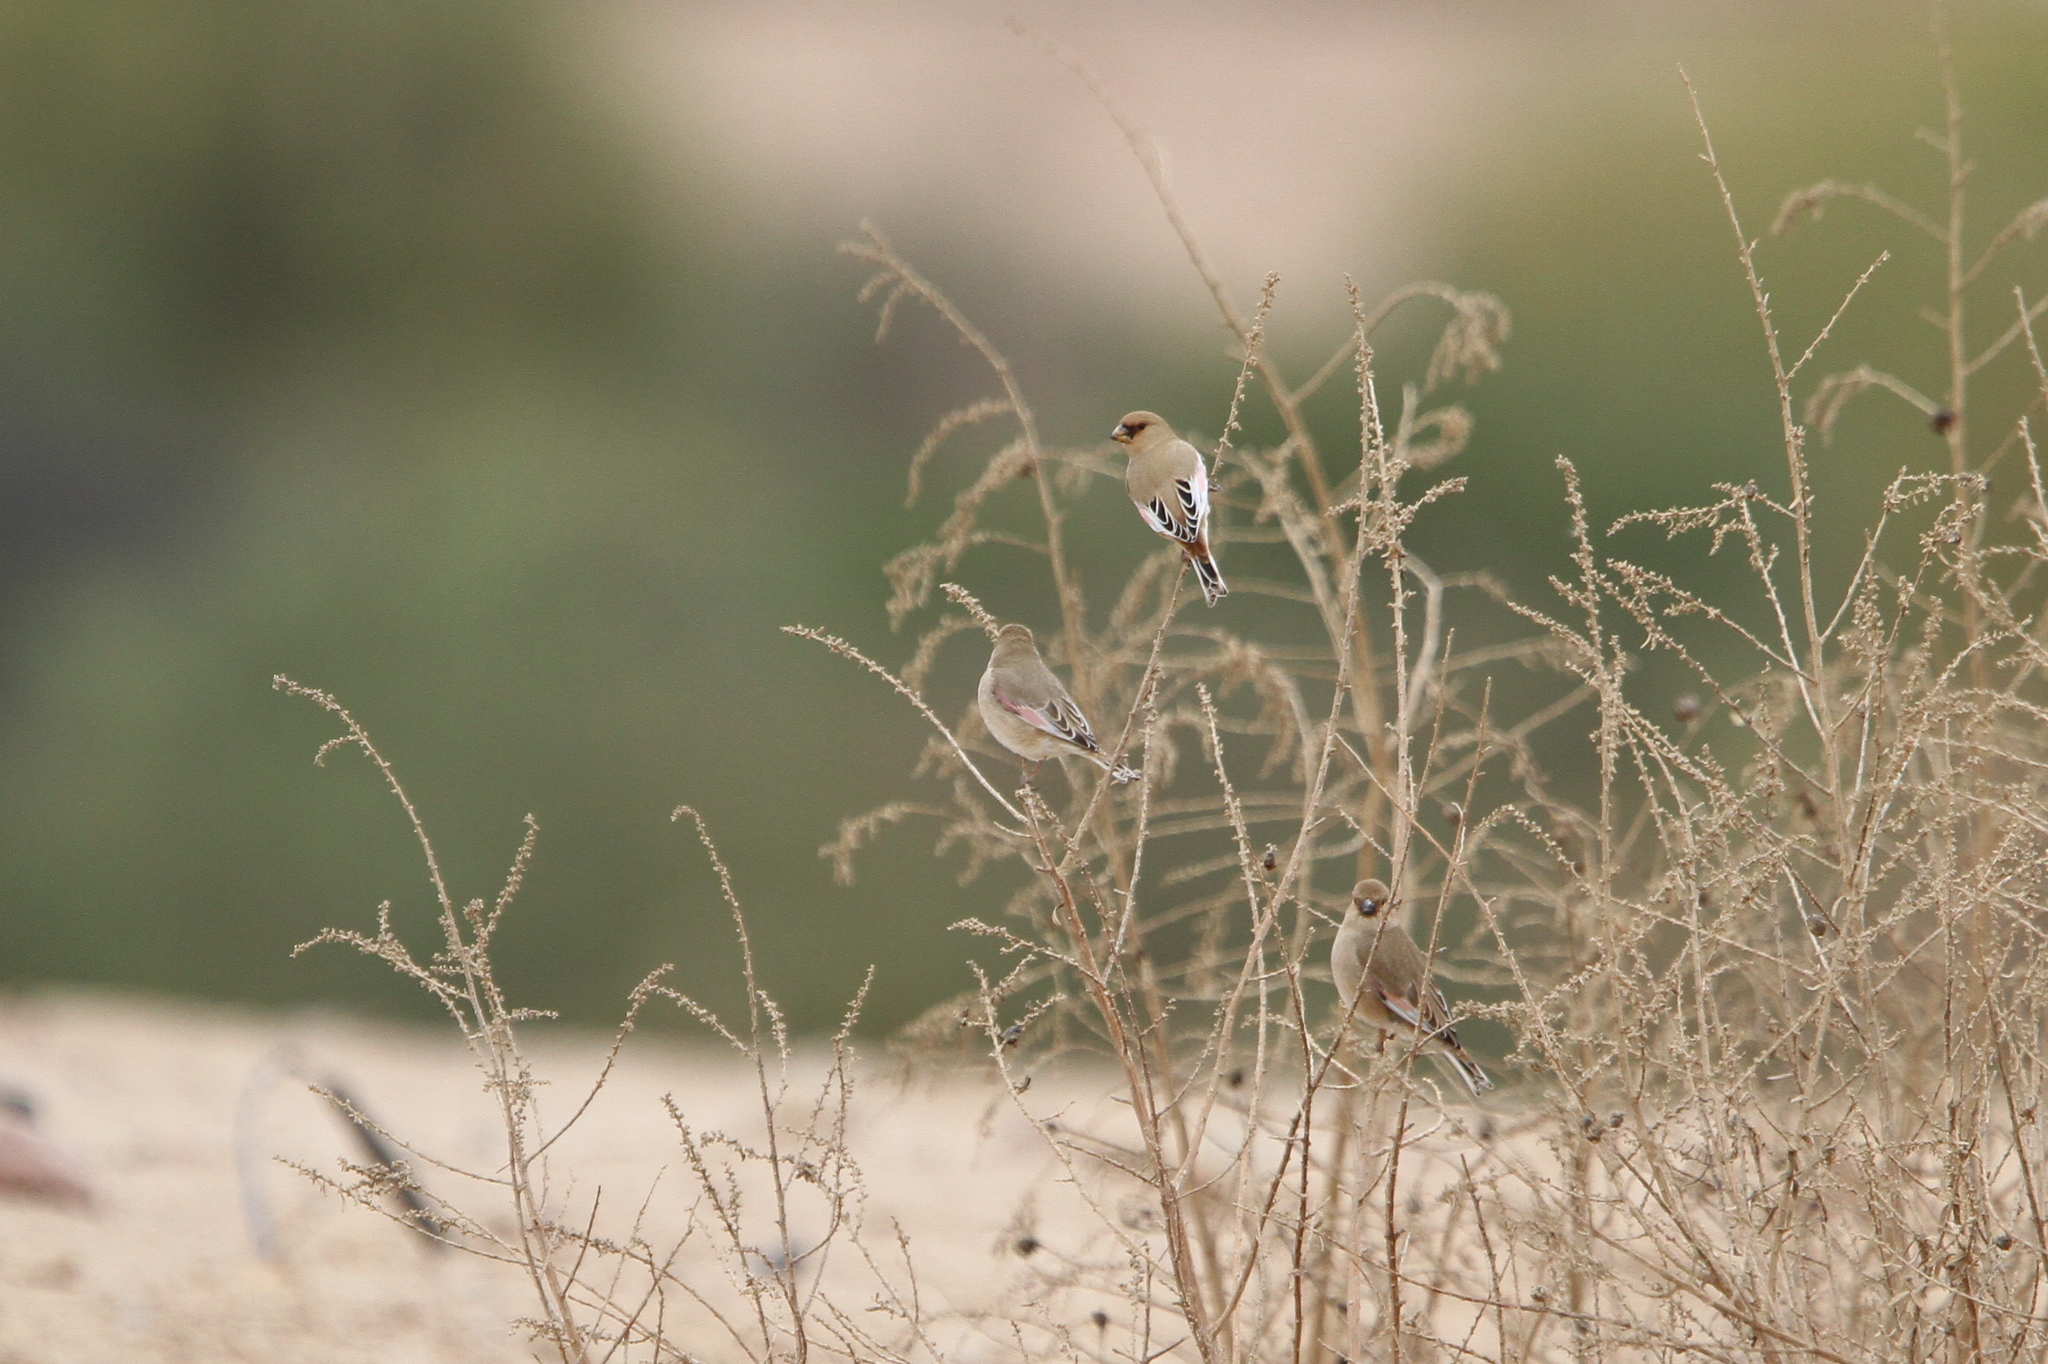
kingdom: Animalia
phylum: Chordata
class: Aves
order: Passeriformes
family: Fringillidae
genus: Rhodospiza
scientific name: Rhodospiza obsoleta
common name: Desert finch
